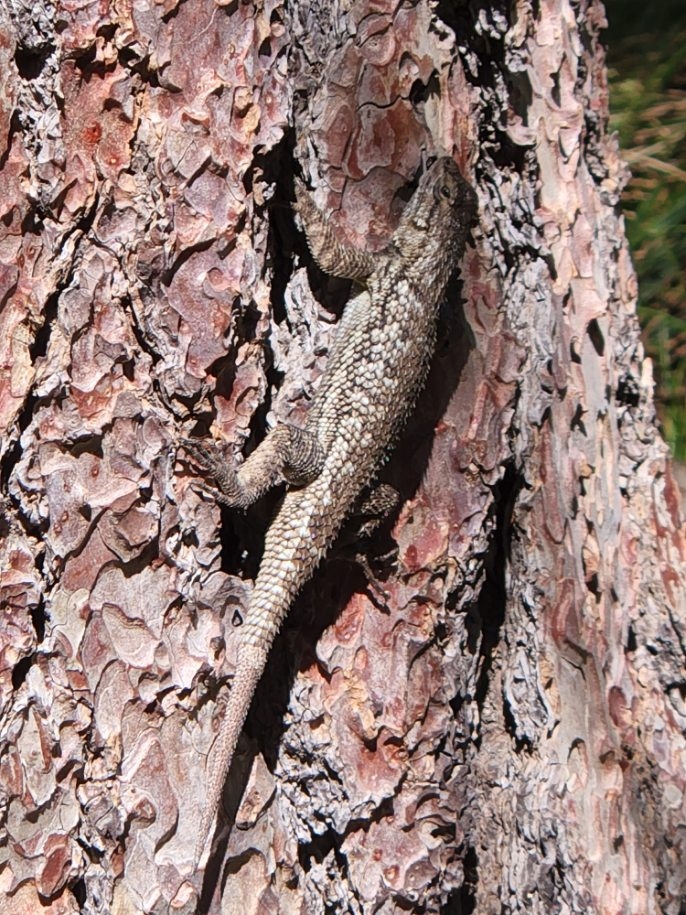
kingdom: Animalia
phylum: Chordata
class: Squamata
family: Phrynosomatidae
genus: Sceloporus
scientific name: Sceloporus occidentalis
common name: Western fence lizard
